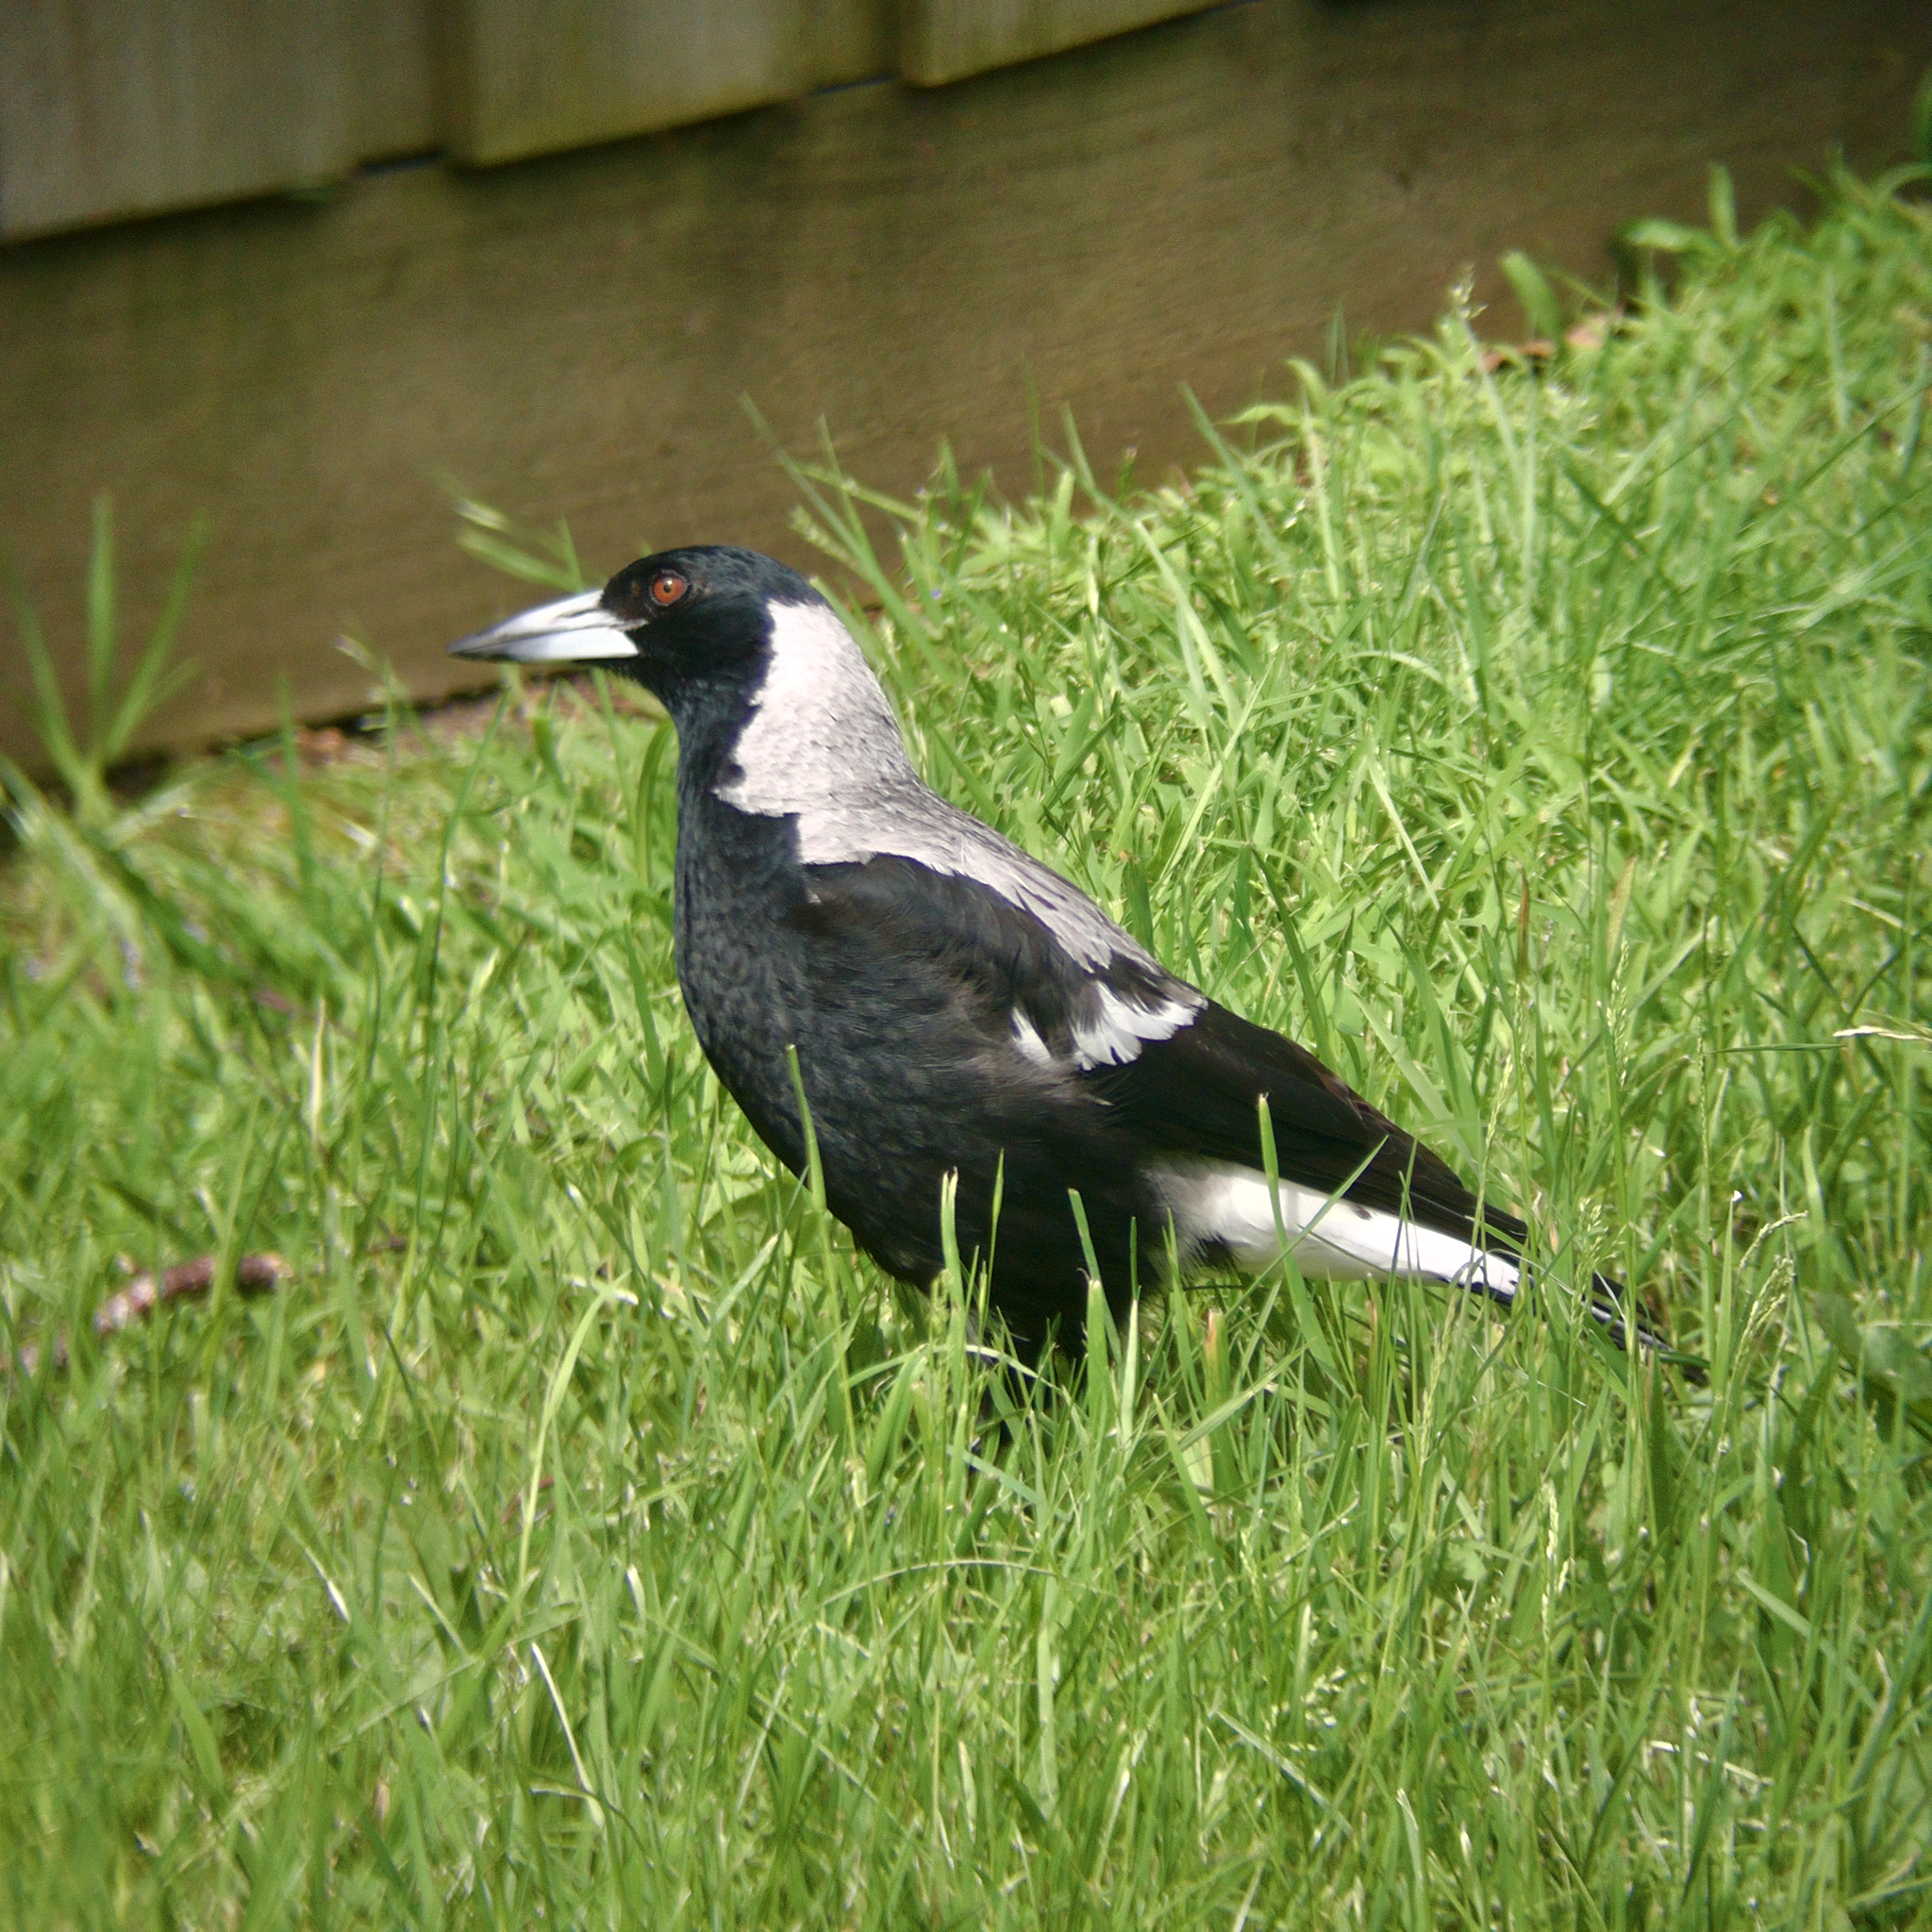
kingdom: Animalia
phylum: Chordata
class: Aves
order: Passeriformes
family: Cracticidae
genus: Gymnorhina
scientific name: Gymnorhina tibicen
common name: Australian magpie
